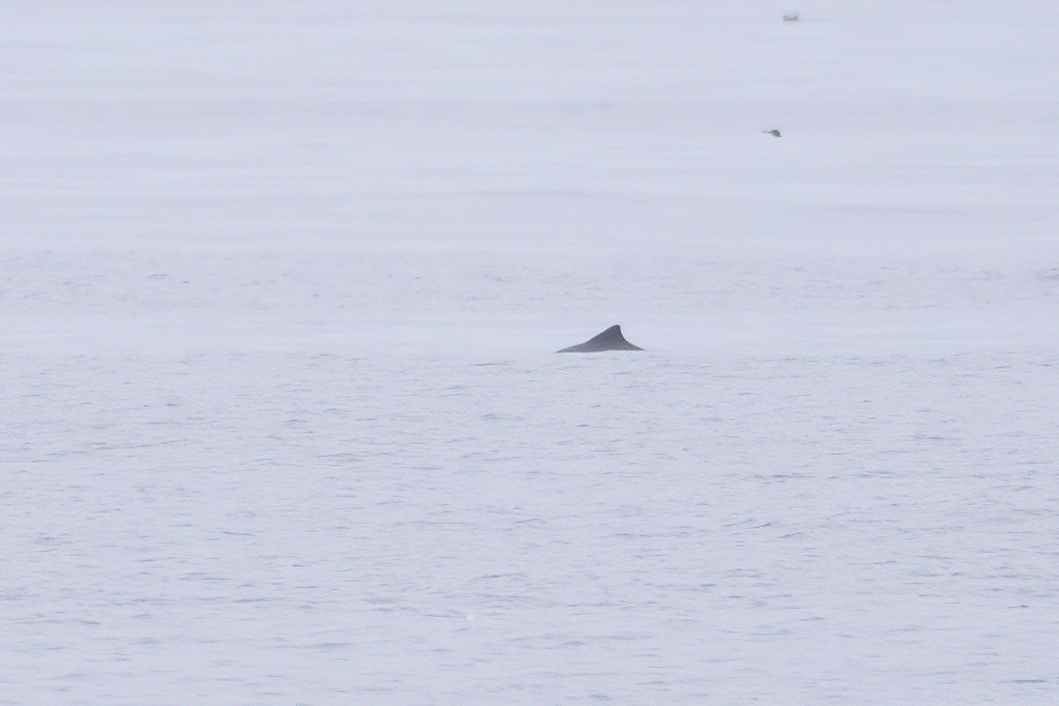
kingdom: Animalia
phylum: Chordata
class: Mammalia
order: Cetacea
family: Phocoenidae
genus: Phocoena
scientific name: Phocoena phocoena
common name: Harbor porpoise
